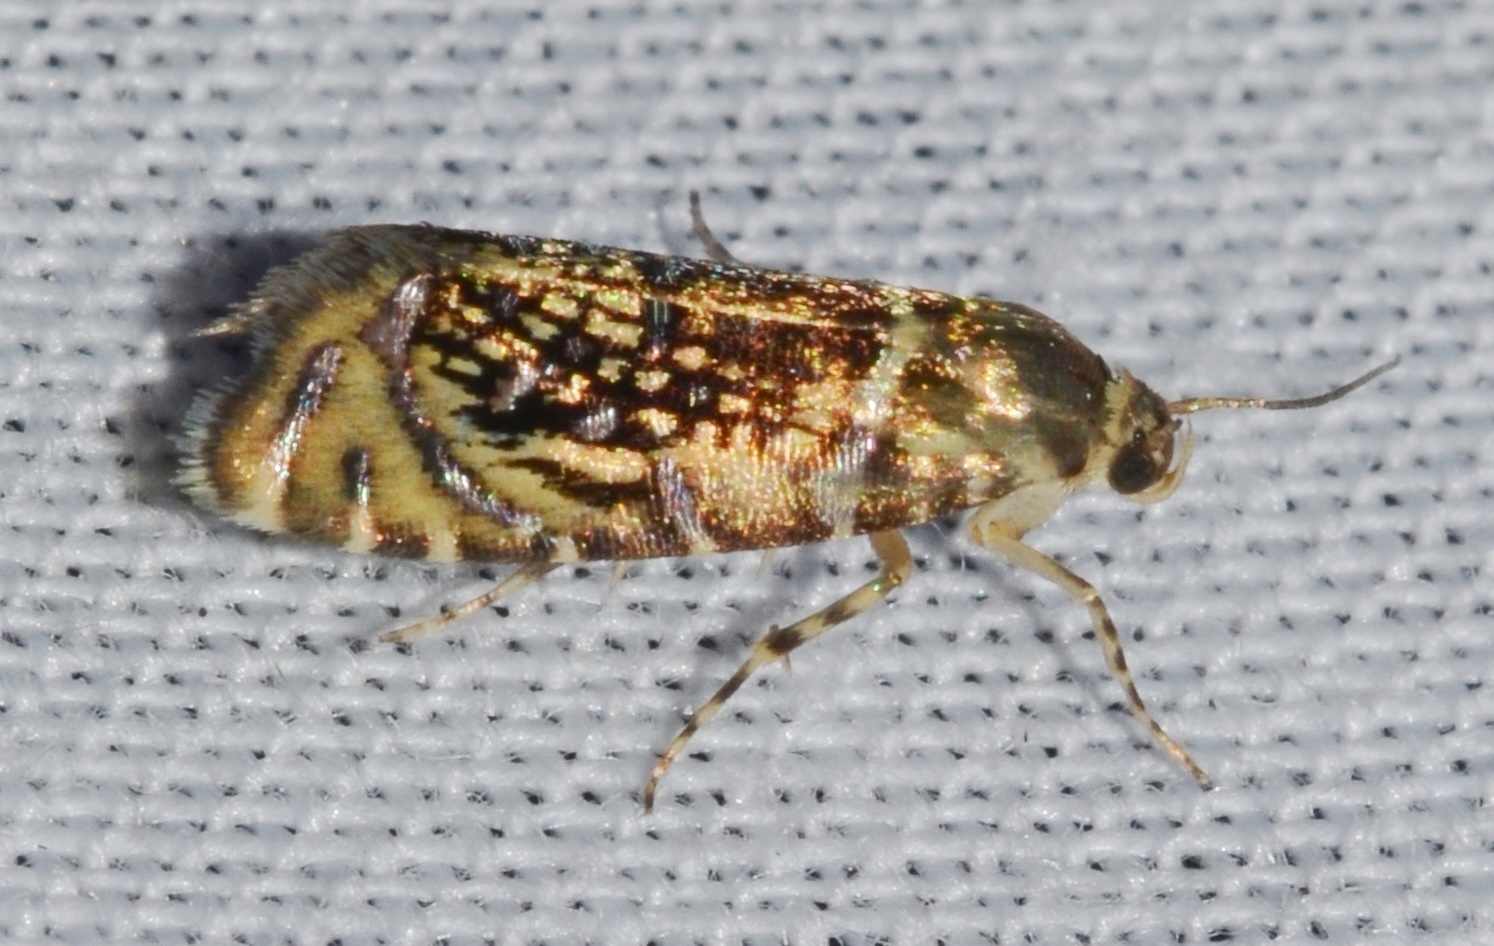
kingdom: Animalia
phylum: Arthropoda
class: Insecta
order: Lepidoptera
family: Glyphipterigidae
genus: Glyphipterix
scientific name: Glyphipterix quadragintapunctata
